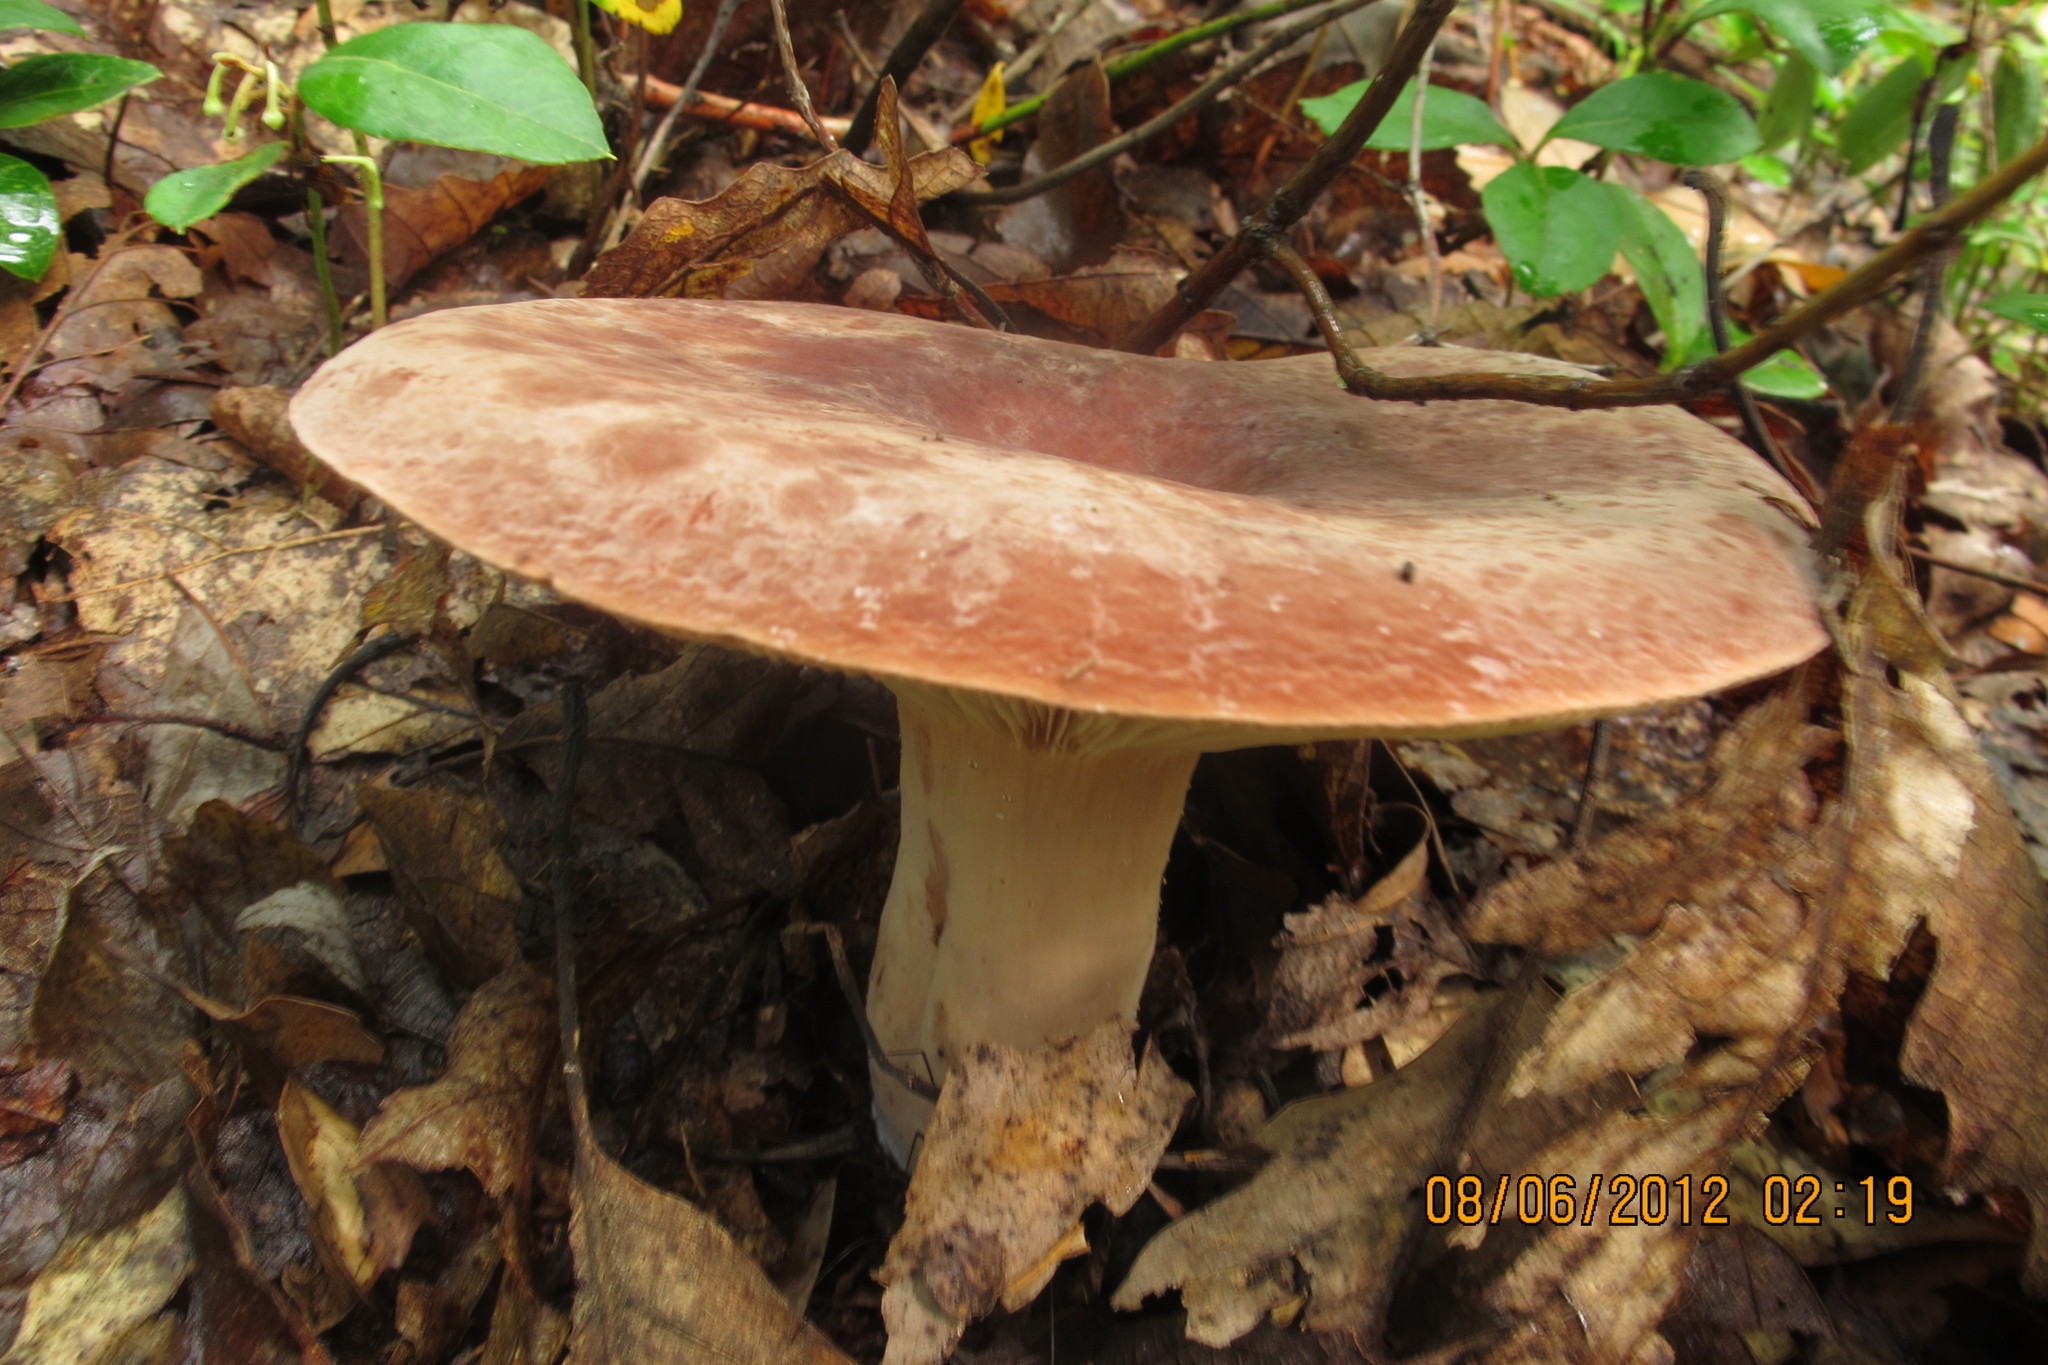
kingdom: Fungi
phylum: Basidiomycota
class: Agaricomycetes
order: Russulales
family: Russulaceae
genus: Lactarius
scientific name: Lactarius corrugis
